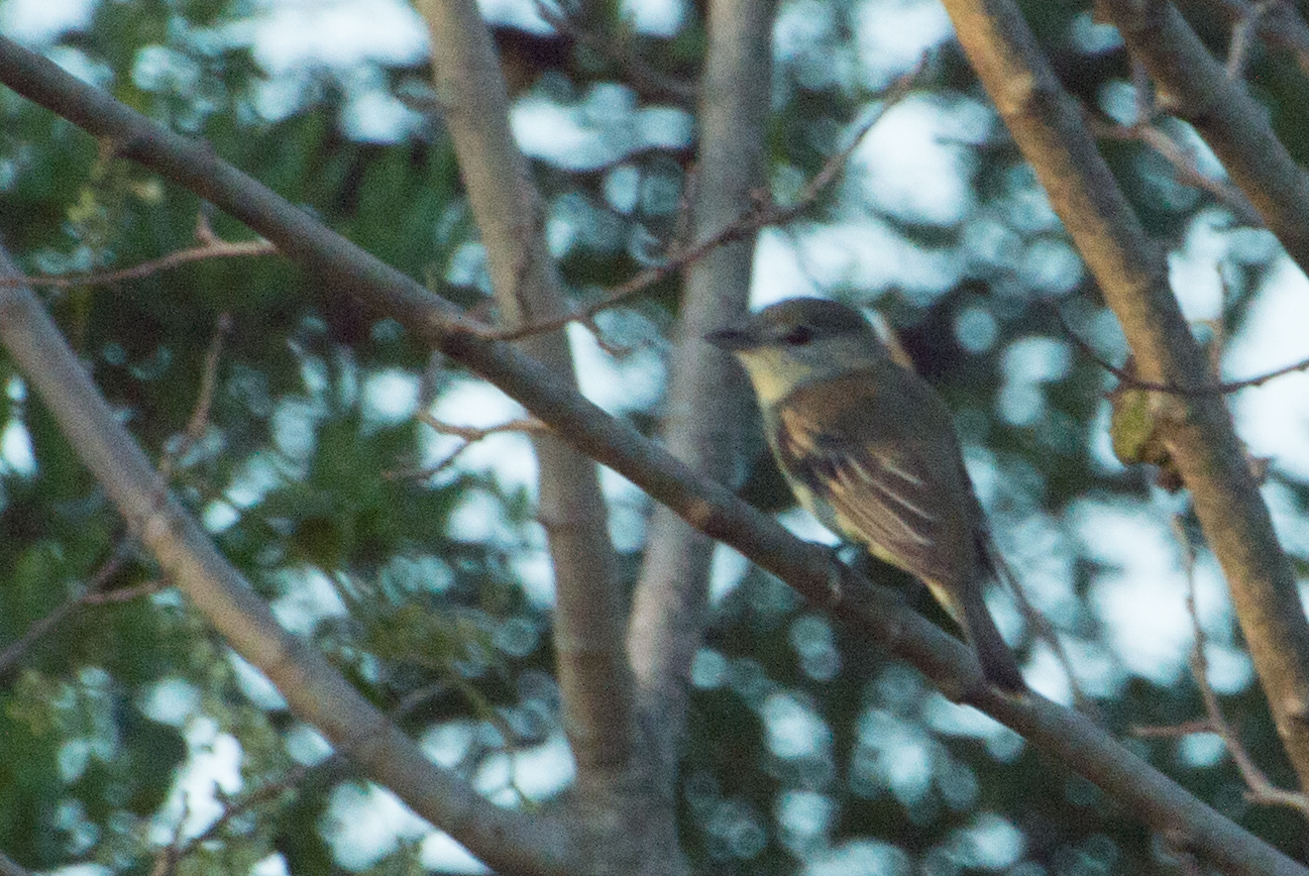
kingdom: Animalia
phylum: Chordata
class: Aves
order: Passeriformes
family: Cotingidae
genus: Pachyramphus
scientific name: Pachyramphus polychopterus
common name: White-winged becard
